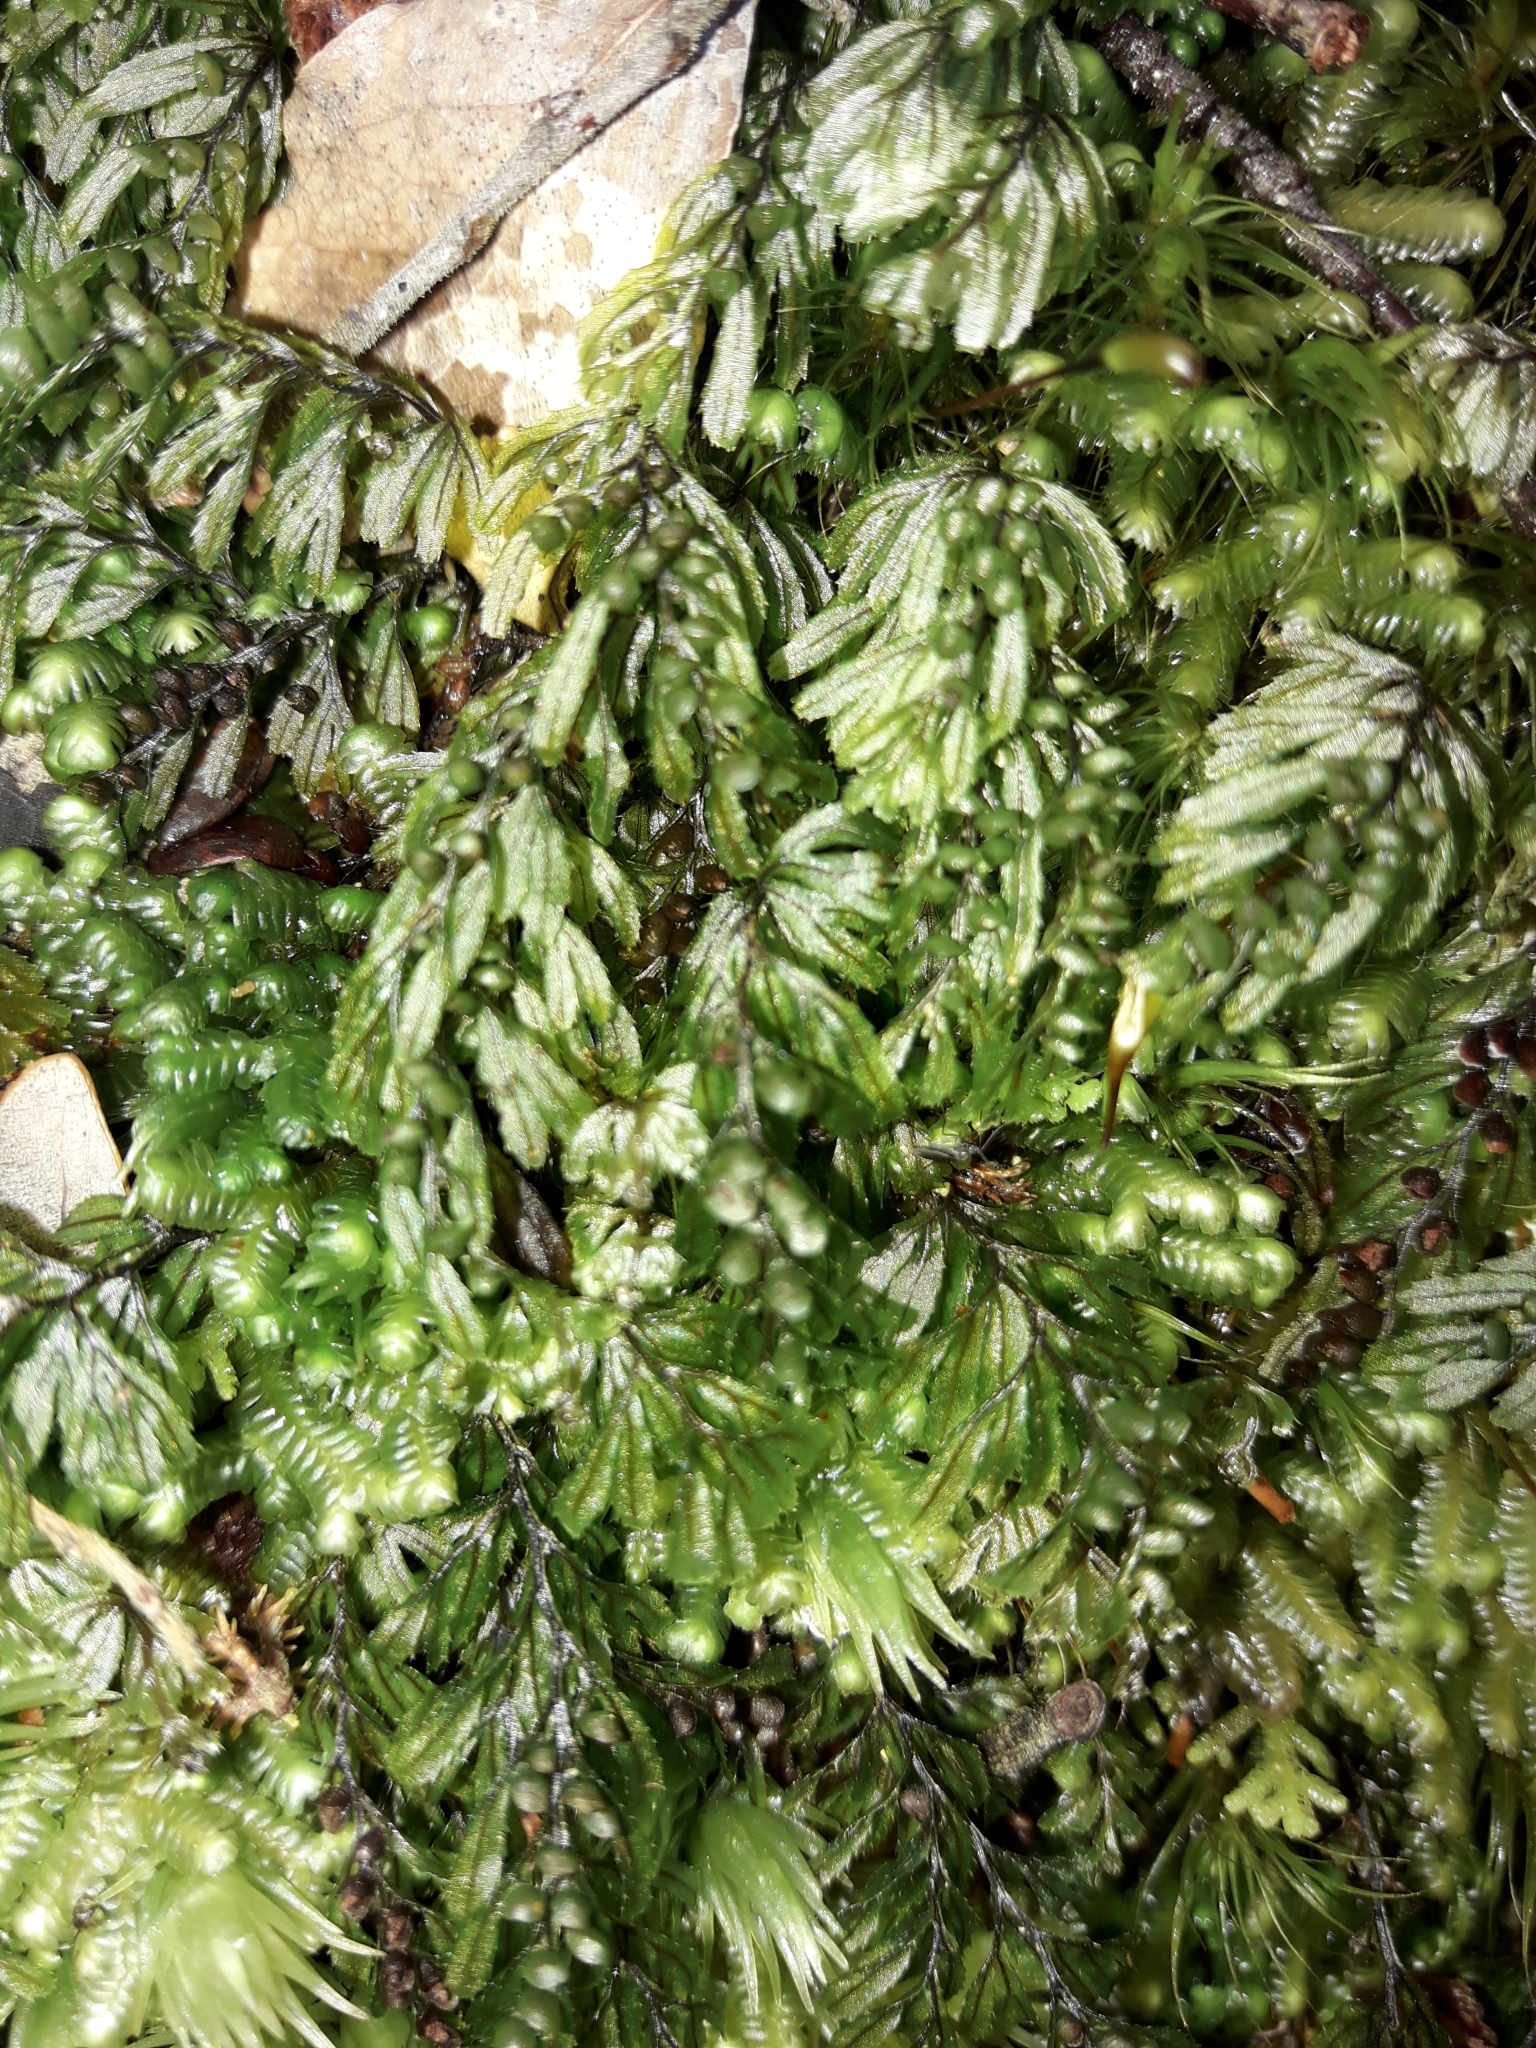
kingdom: Plantae
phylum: Tracheophyta
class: Polypodiopsida
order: Hymenophyllales
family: Hymenophyllaceae
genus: Hymenophyllum
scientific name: Hymenophyllum peltatum
